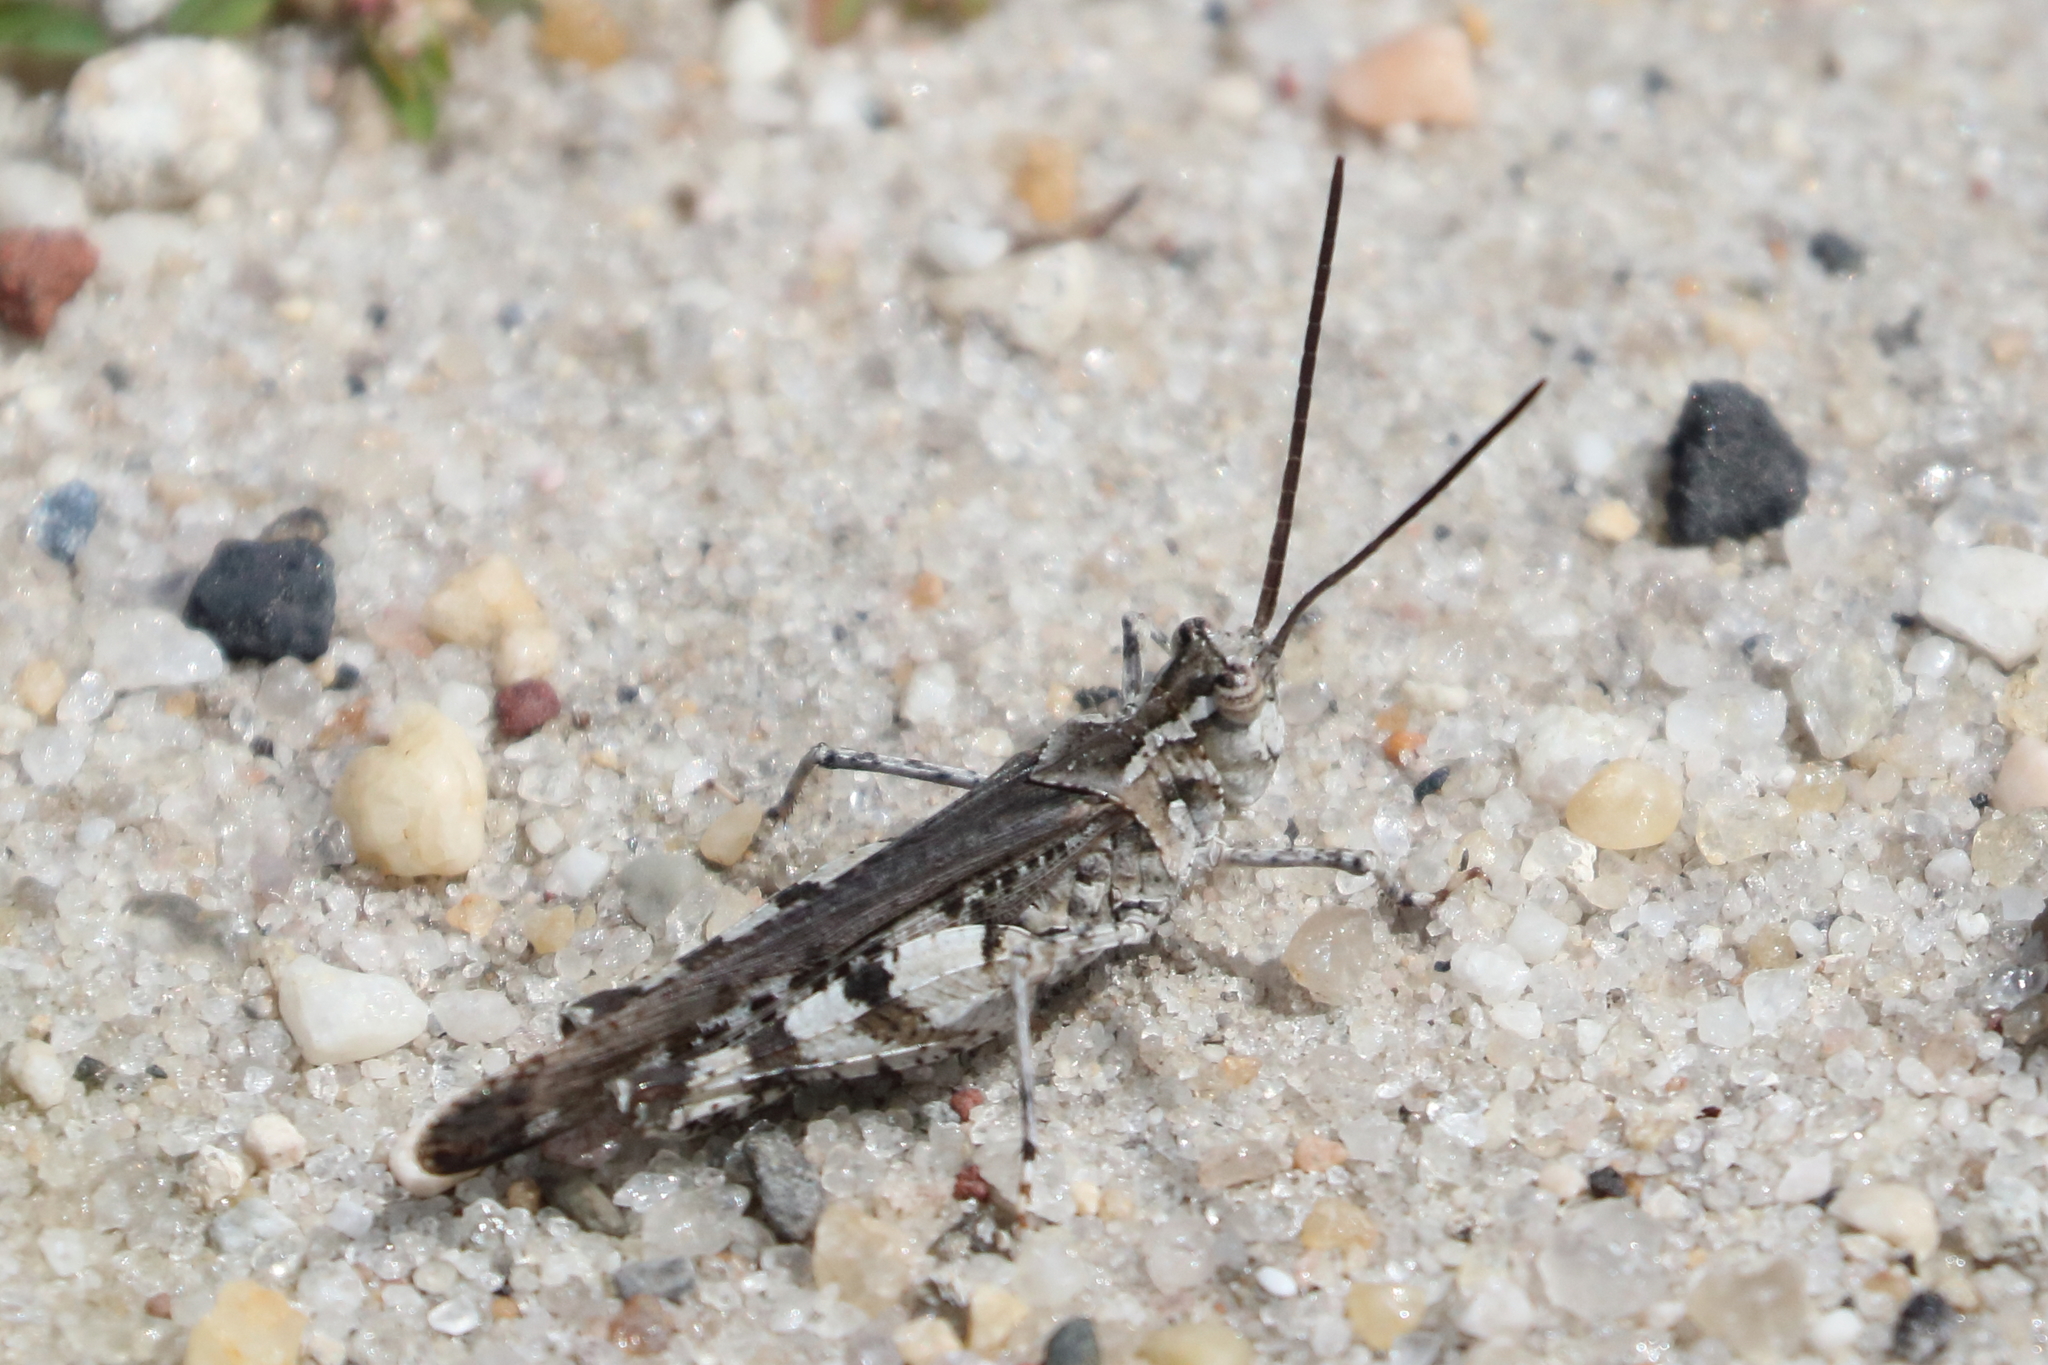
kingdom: Animalia
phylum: Arthropoda
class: Insecta
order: Orthoptera
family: Acrididae
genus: Psinidia
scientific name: Psinidia fenestralis
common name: Long-horned locust
